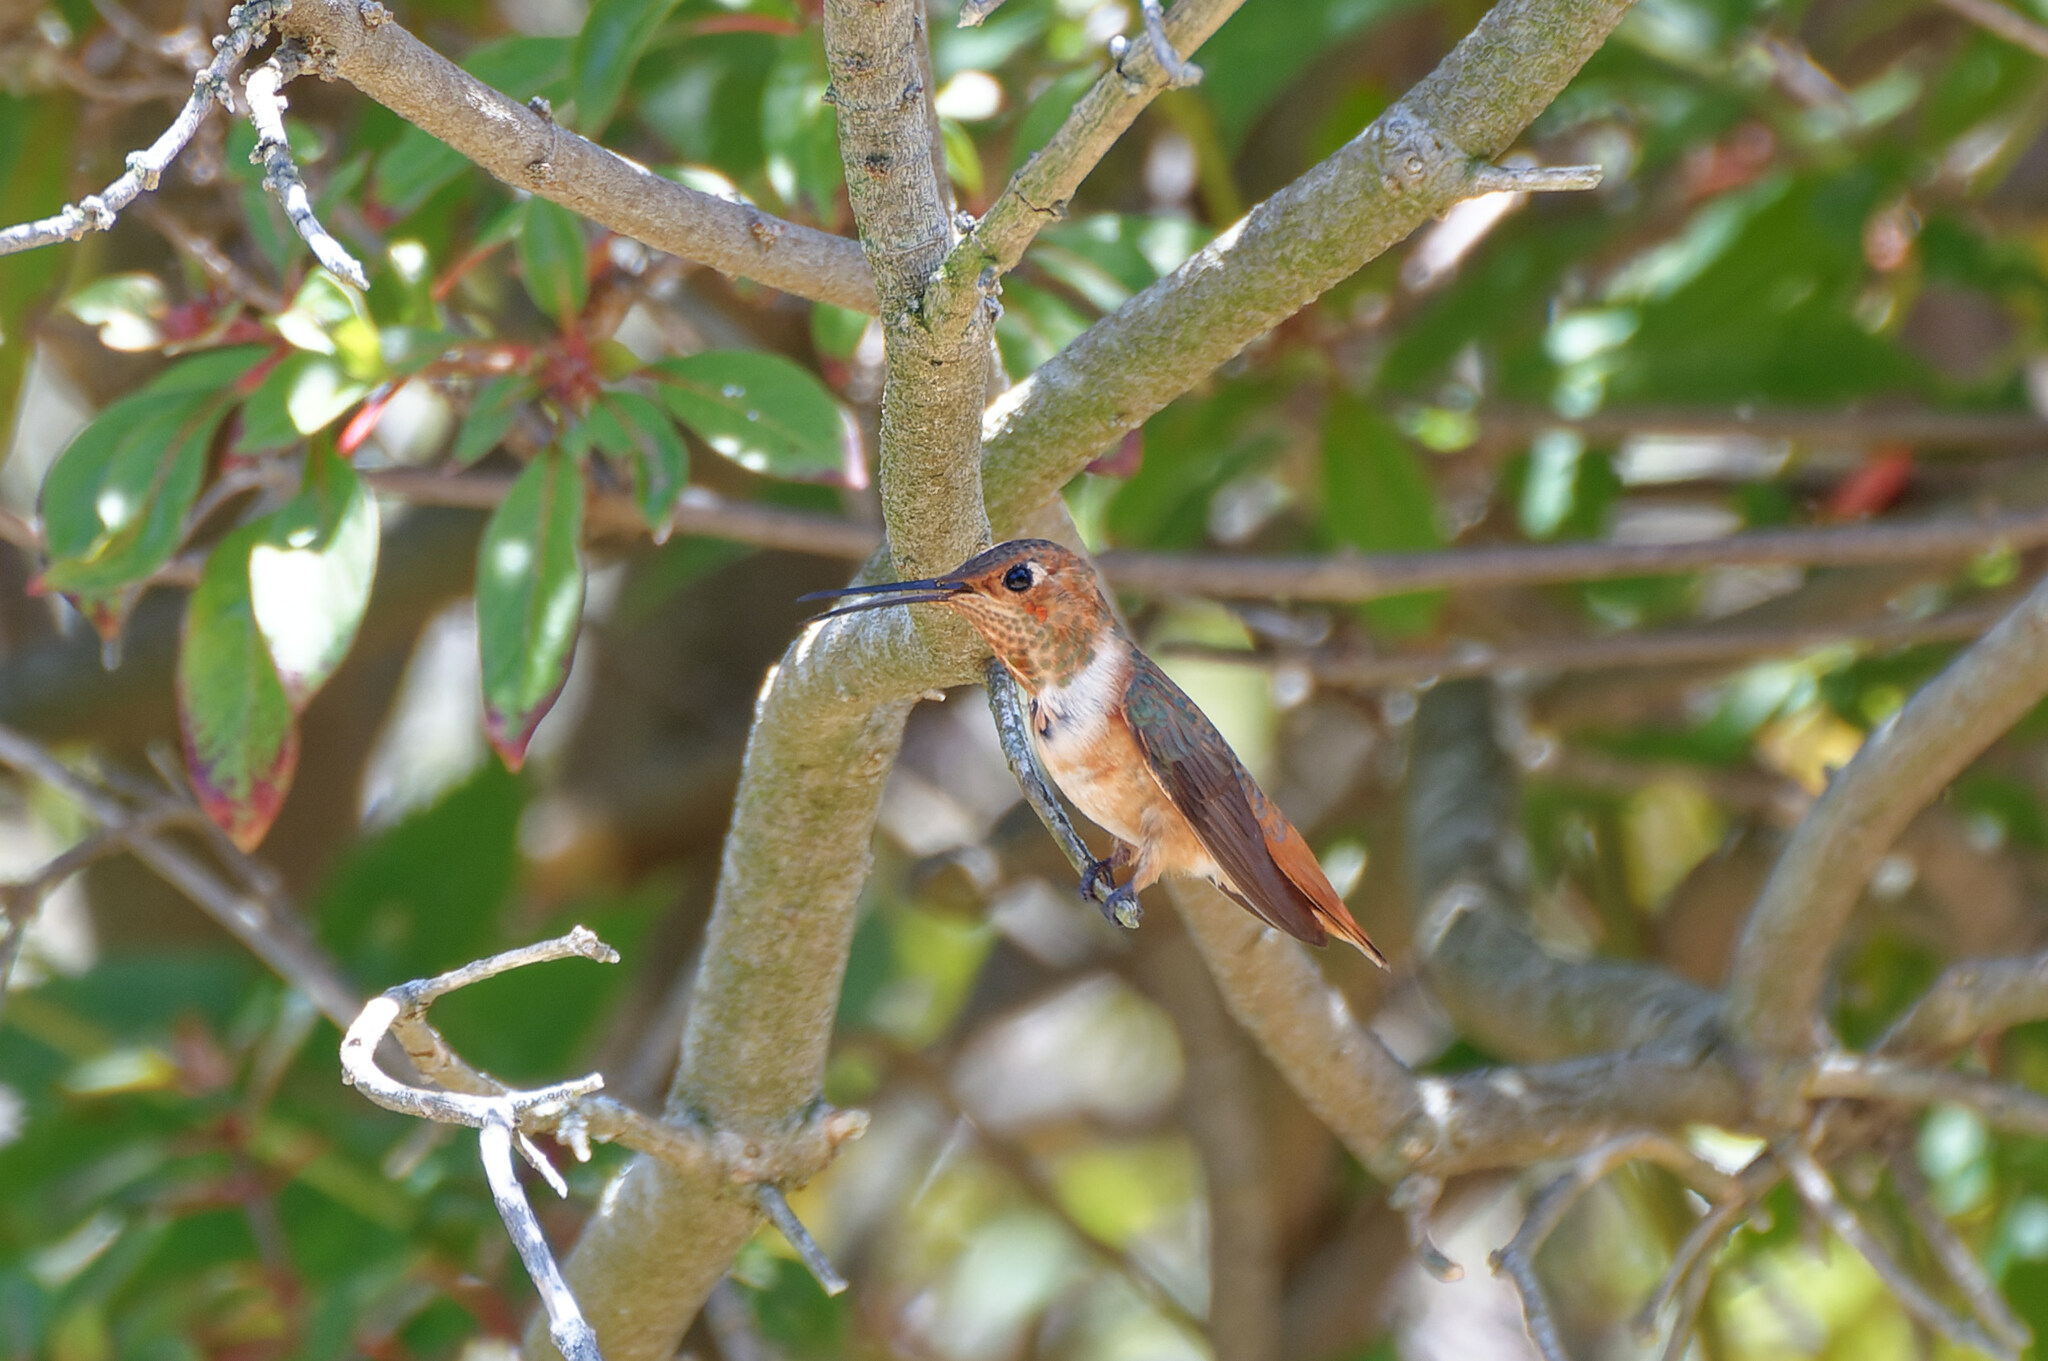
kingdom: Animalia
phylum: Chordata
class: Aves
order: Apodiformes
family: Trochilidae
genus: Selasphorus
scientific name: Selasphorus sasin
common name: Allen's hummingbird
